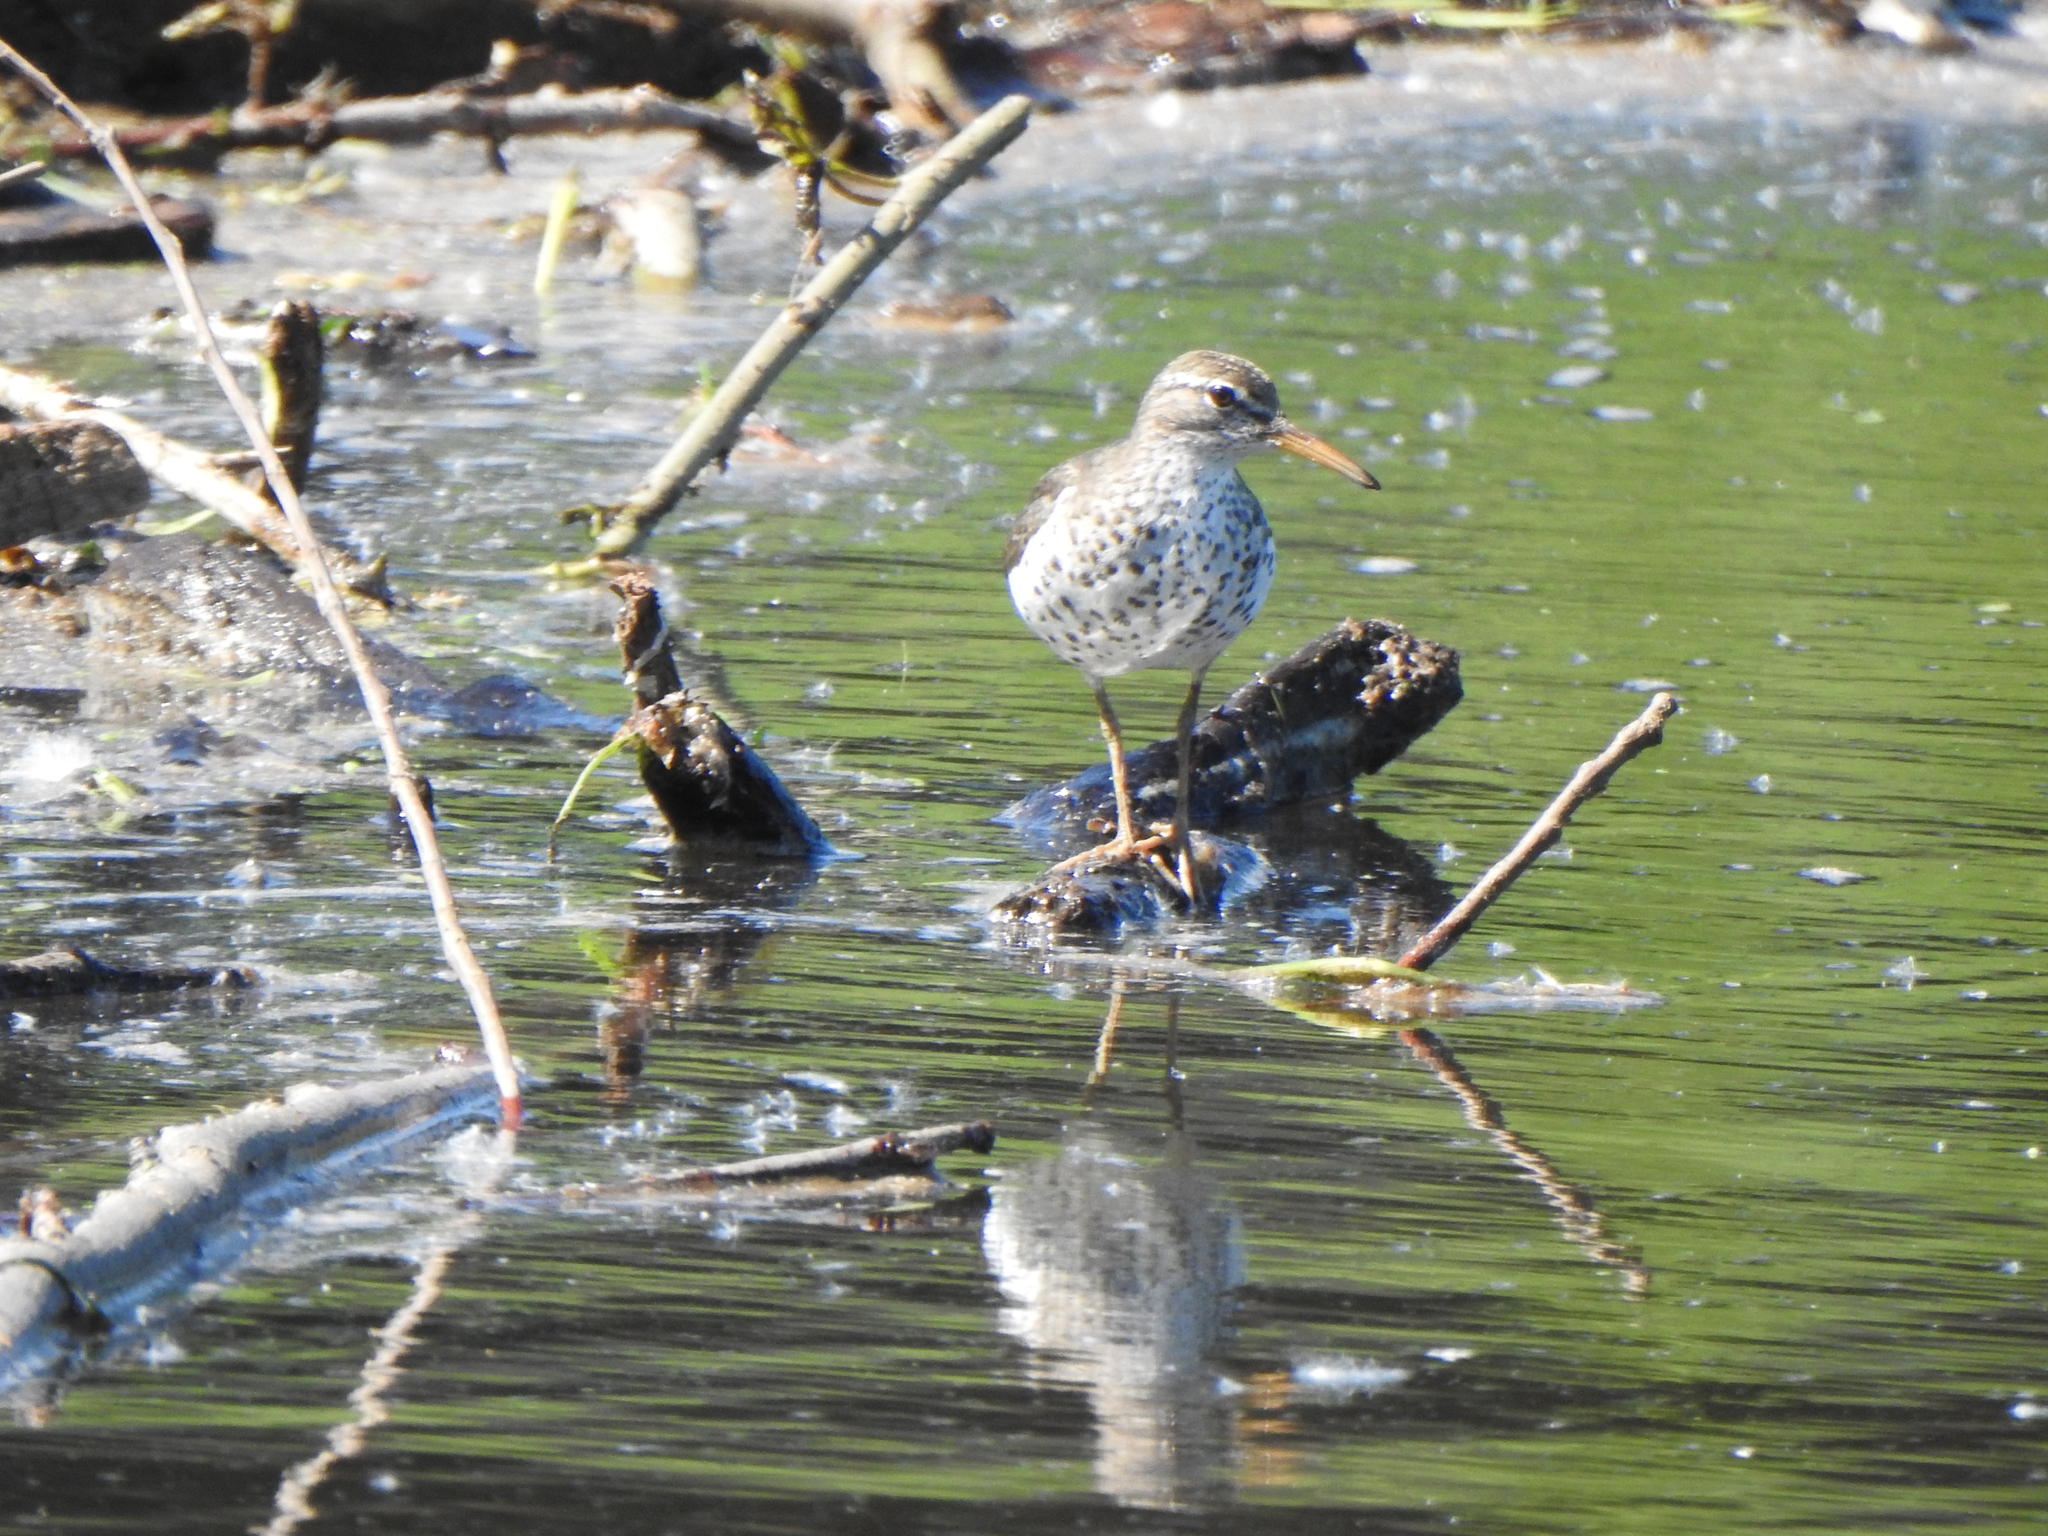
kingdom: Animalia
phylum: Chordata
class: Aves
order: Charadriiformes
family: Scolopacidae
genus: Actitis
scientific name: Actitis macularius
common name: Spotted sandpiper
